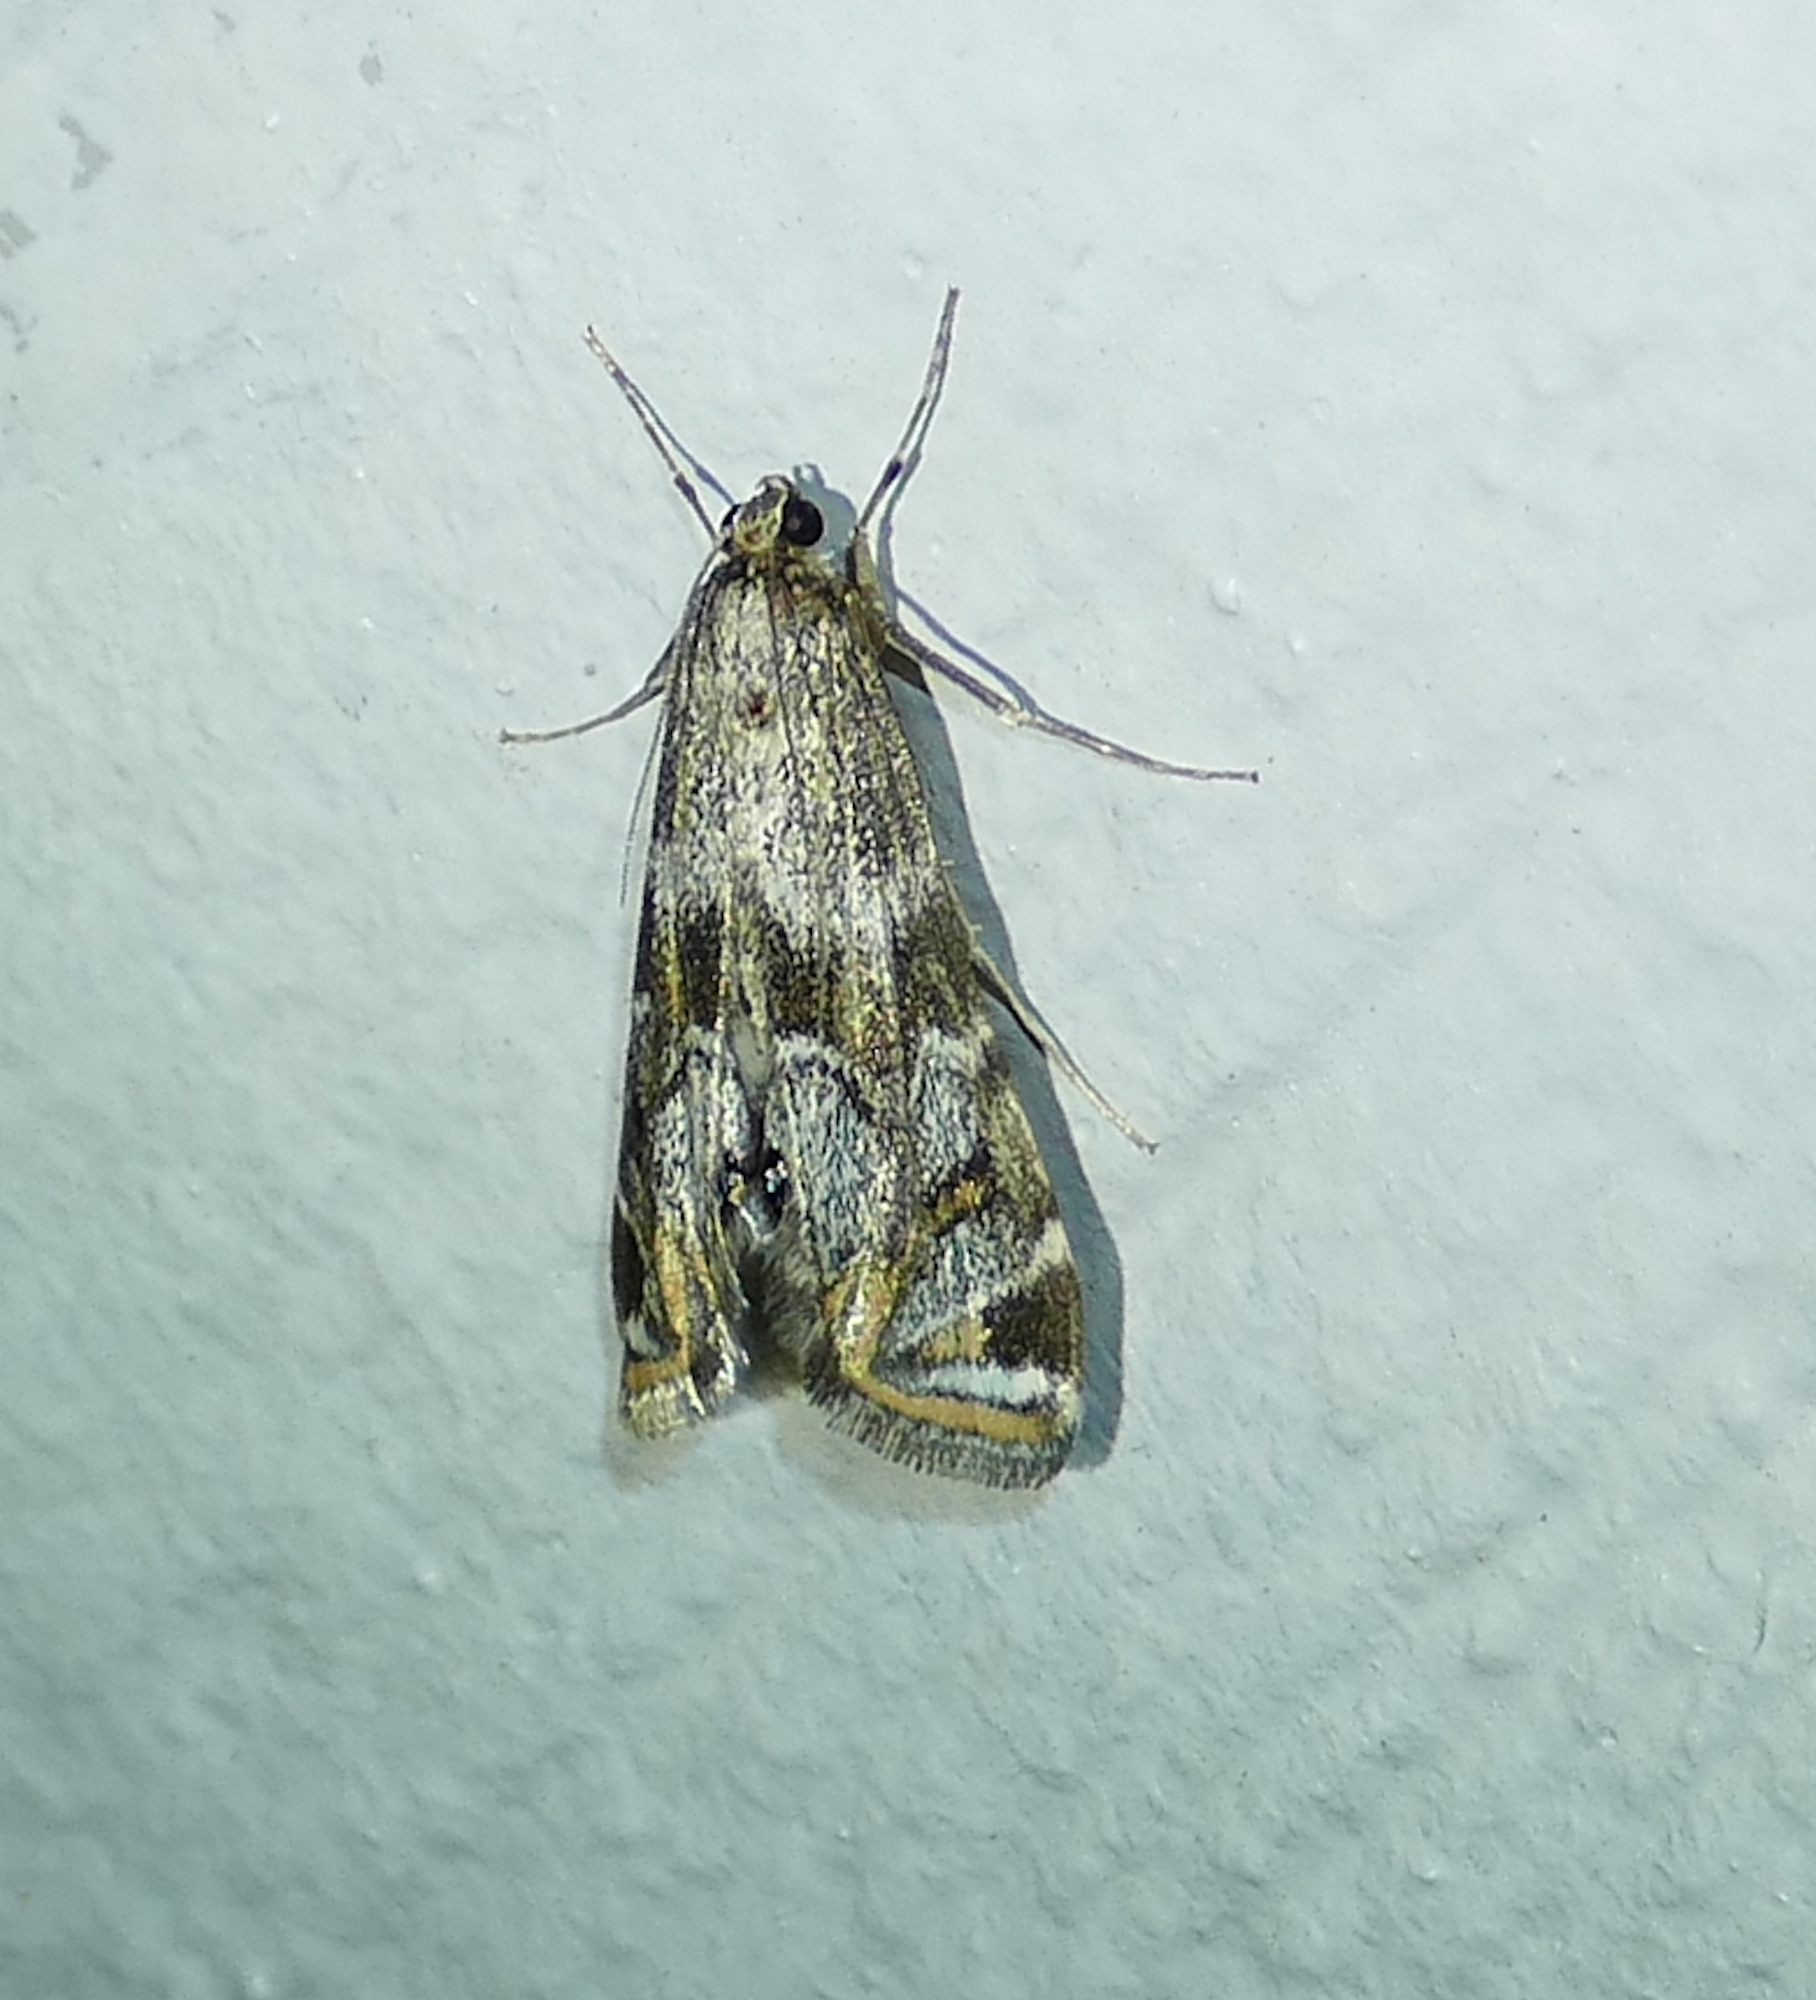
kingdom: Animalia
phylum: Arthropoda
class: Insecta
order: Lepidoptera
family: Crambidae
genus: Petrophila
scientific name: Petrophila longipennis
